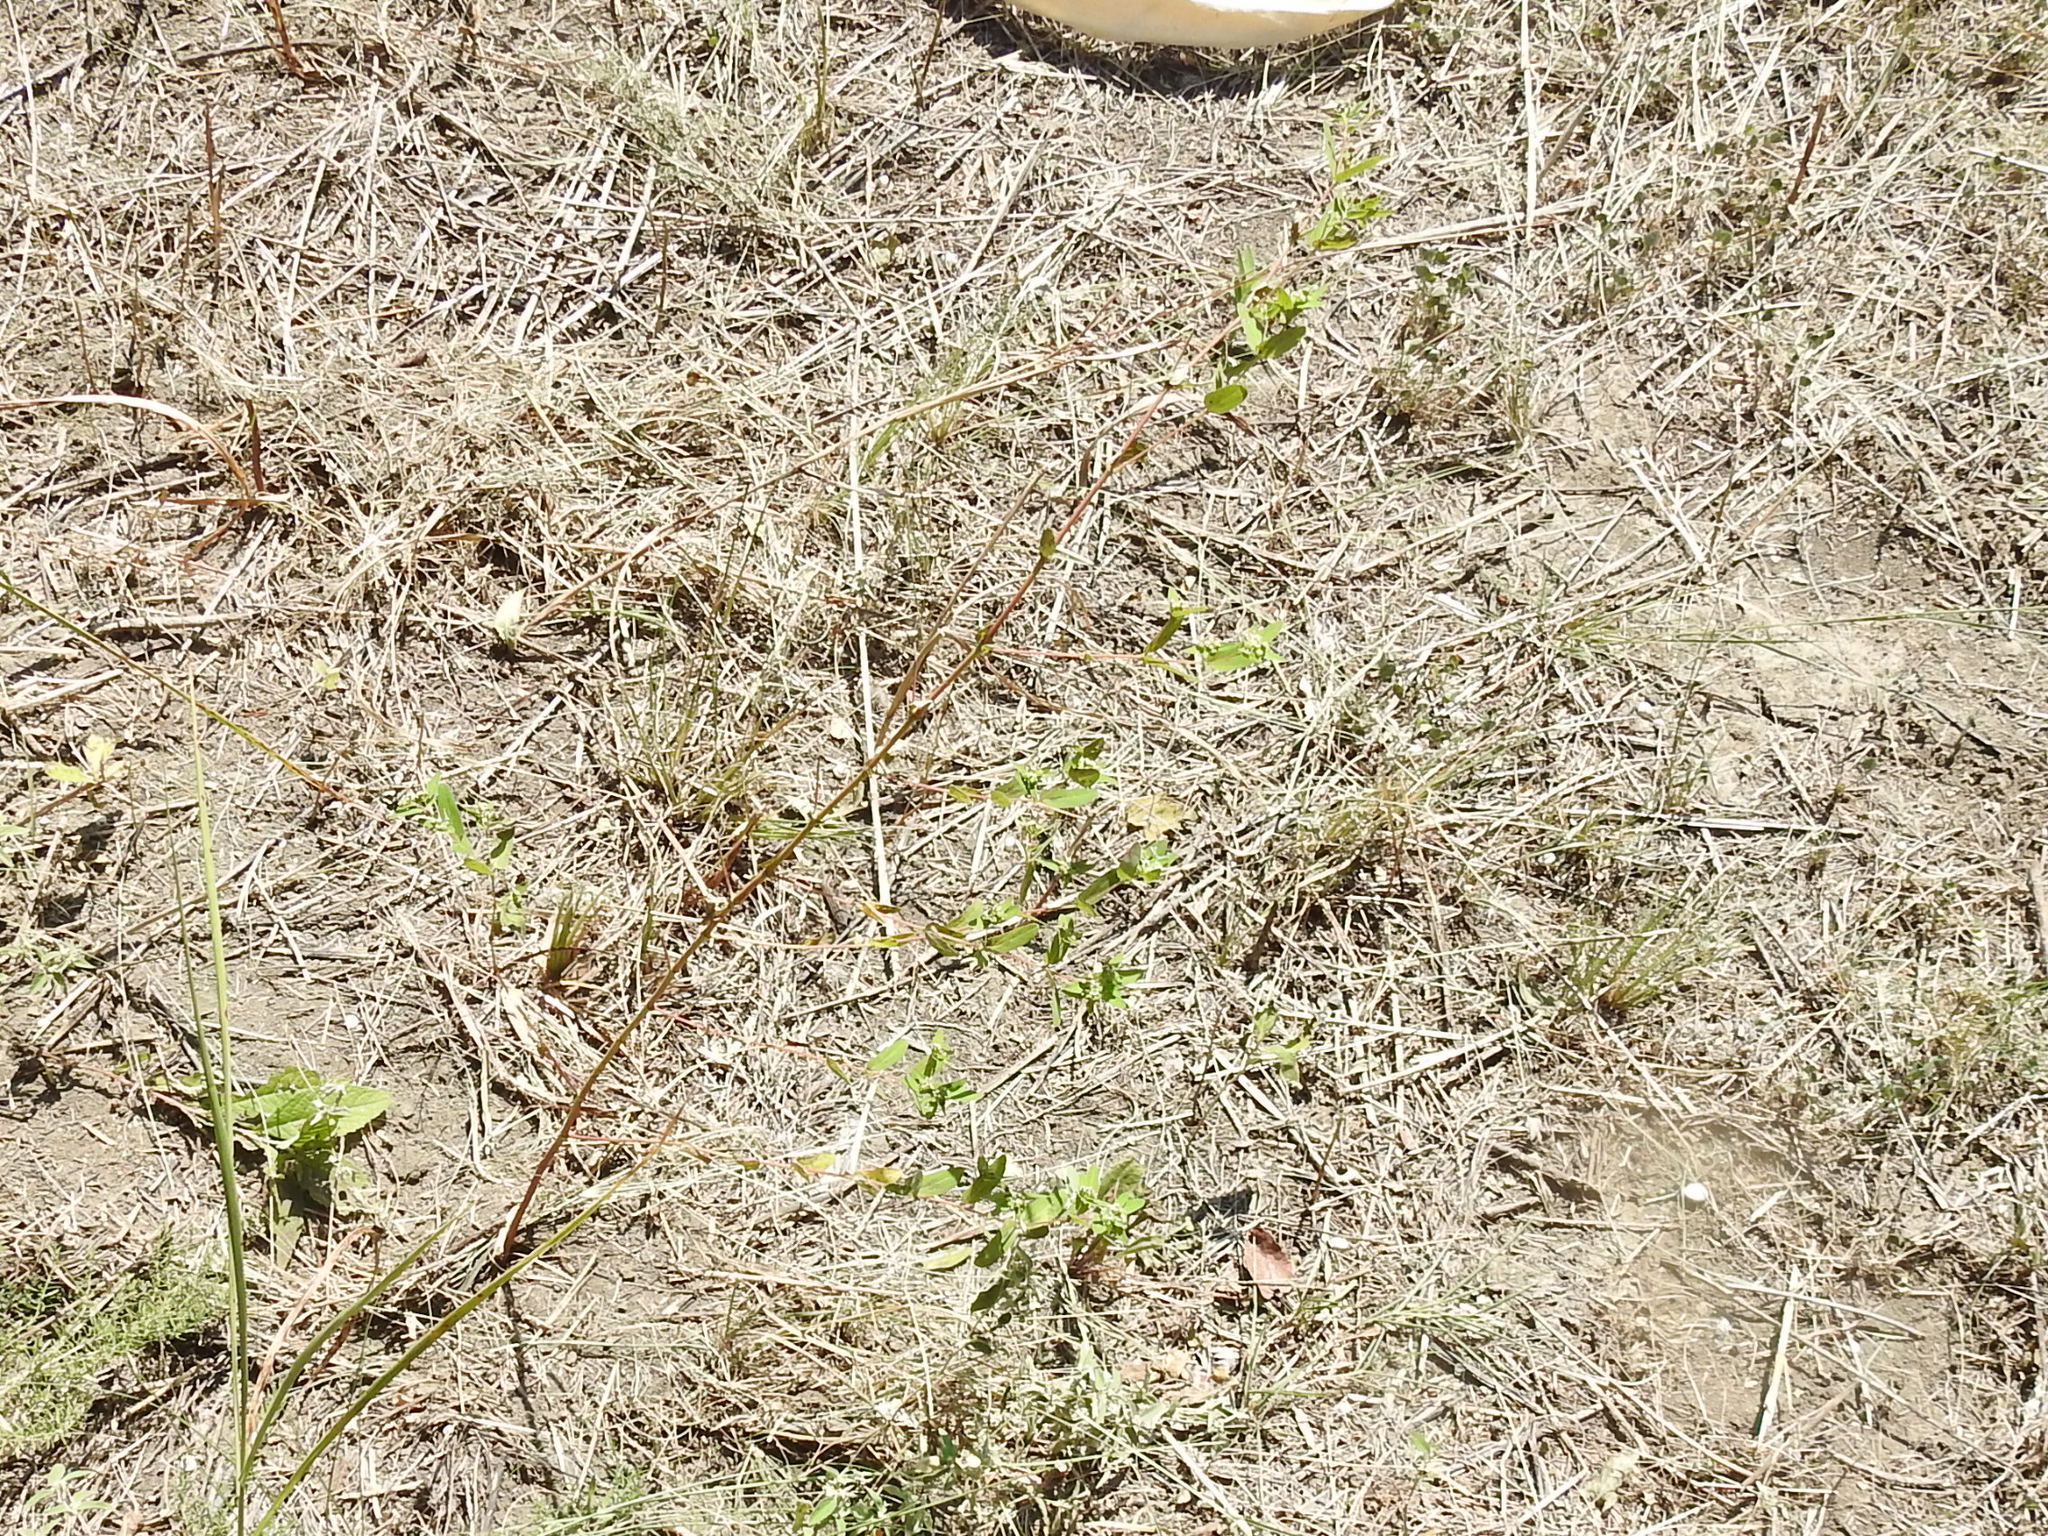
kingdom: Plantae
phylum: Tracheophyta
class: Magnoliopsida
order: Malpighiales
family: Euphorbiaceae
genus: Euphorbia
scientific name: Euphorbia nutans
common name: Eyebane
